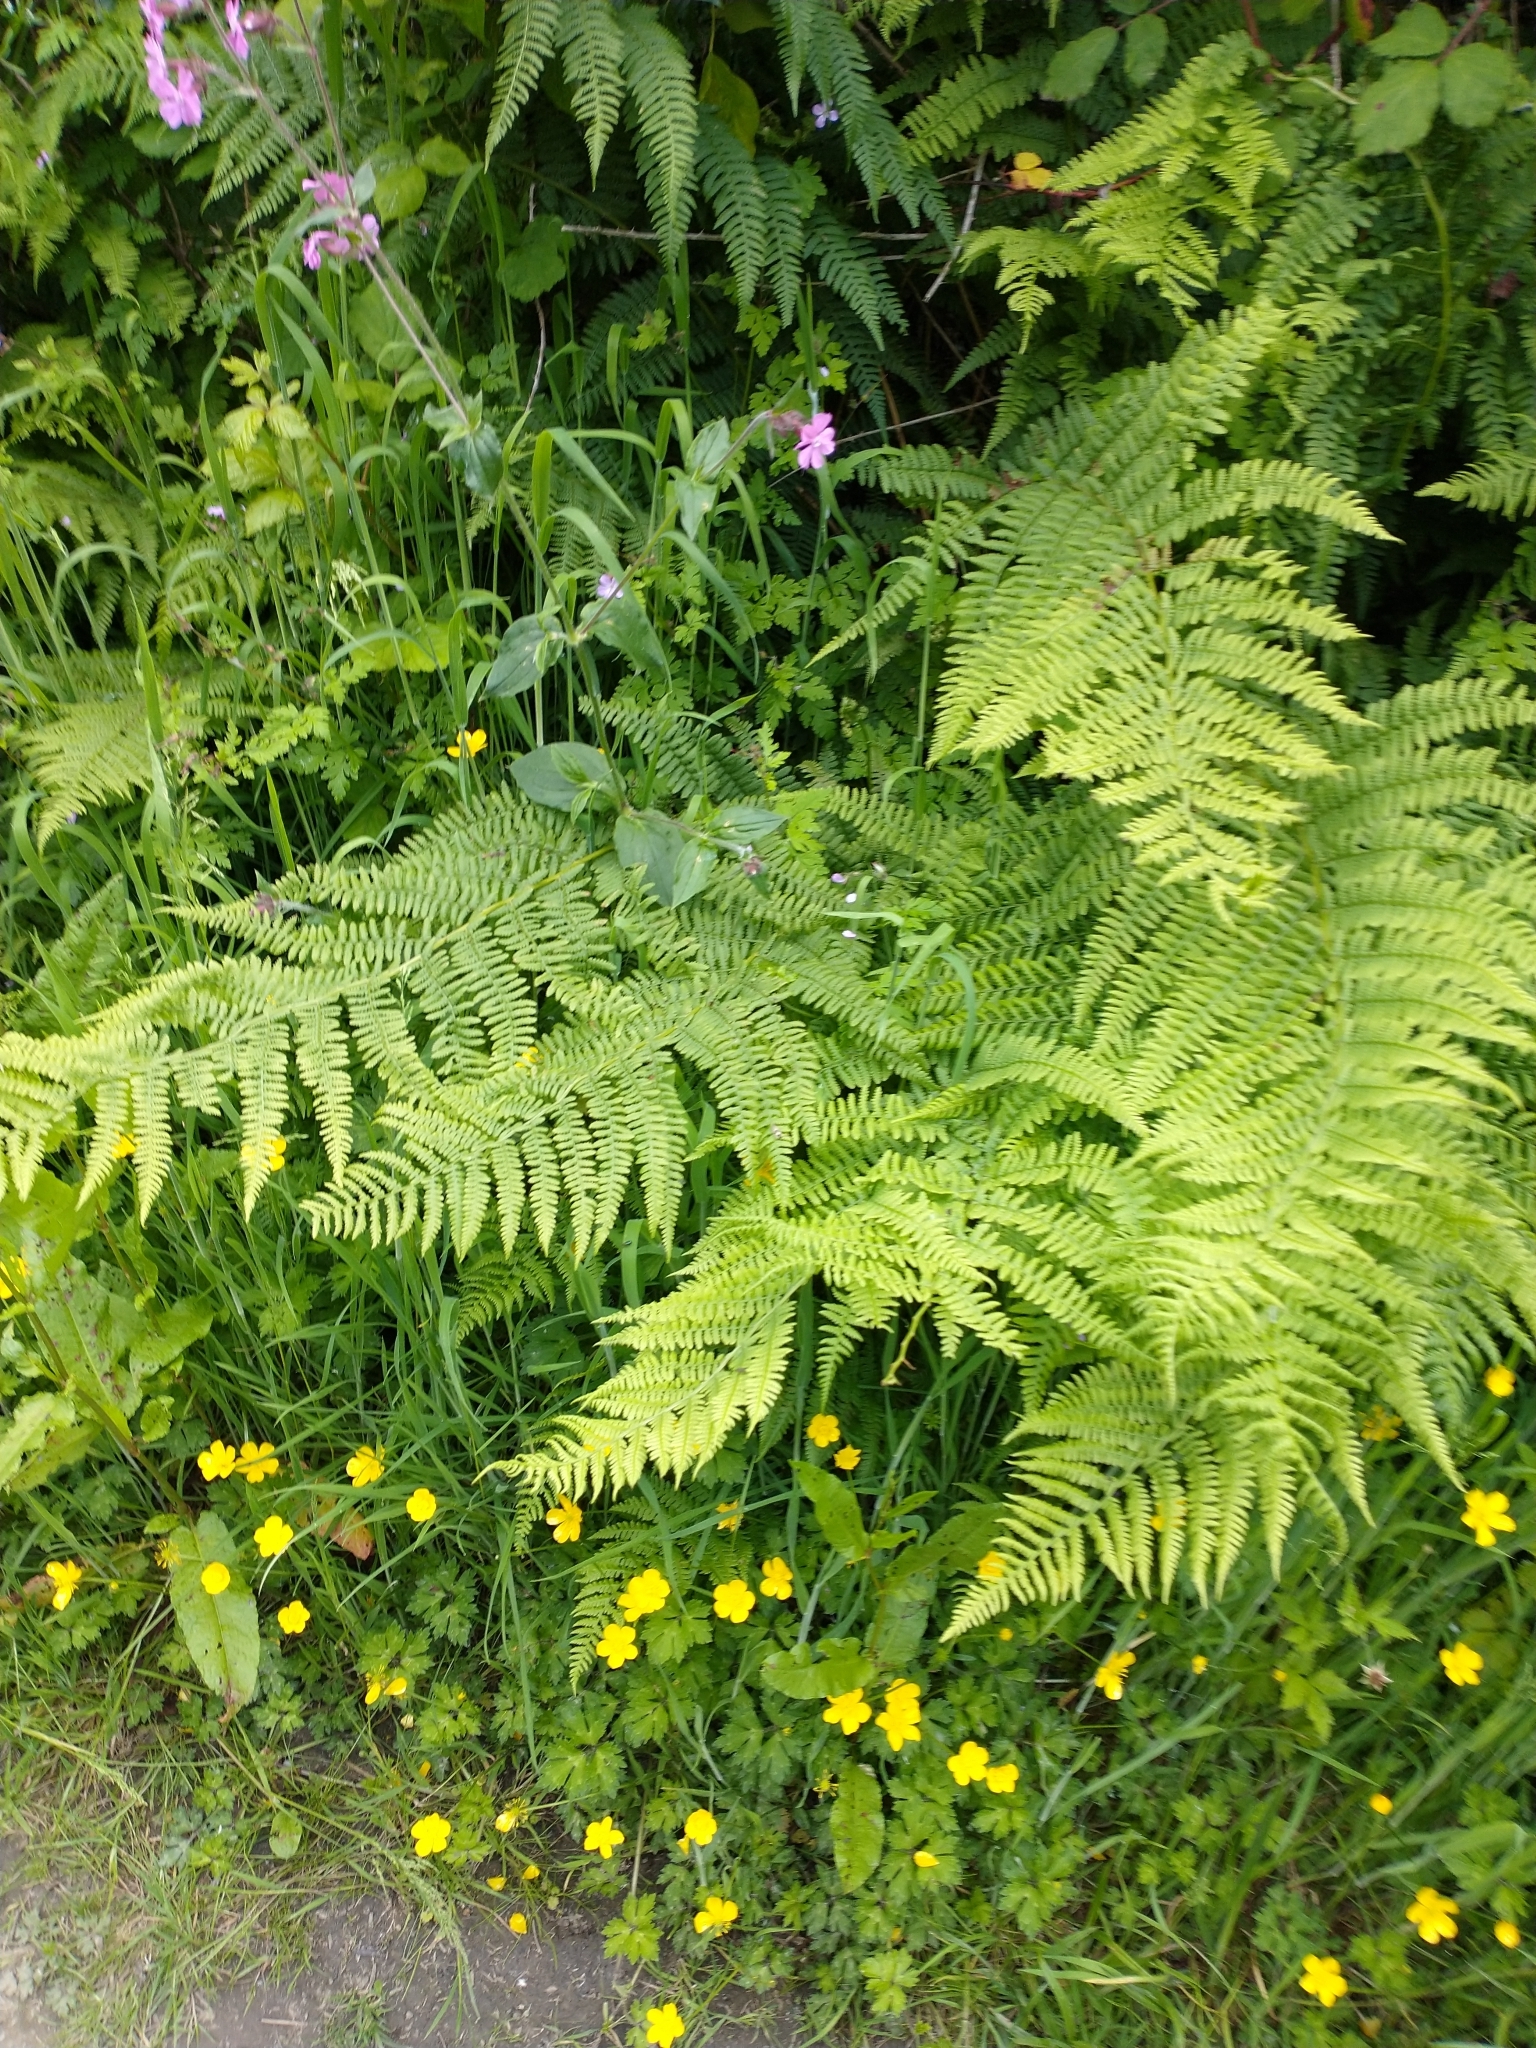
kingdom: Plantae
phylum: Tracheophyta
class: Polypodiopsida
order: Polypodiales
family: Athyriaceae
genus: Athyrium
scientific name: Athyrium filix-femina
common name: Lady fern
